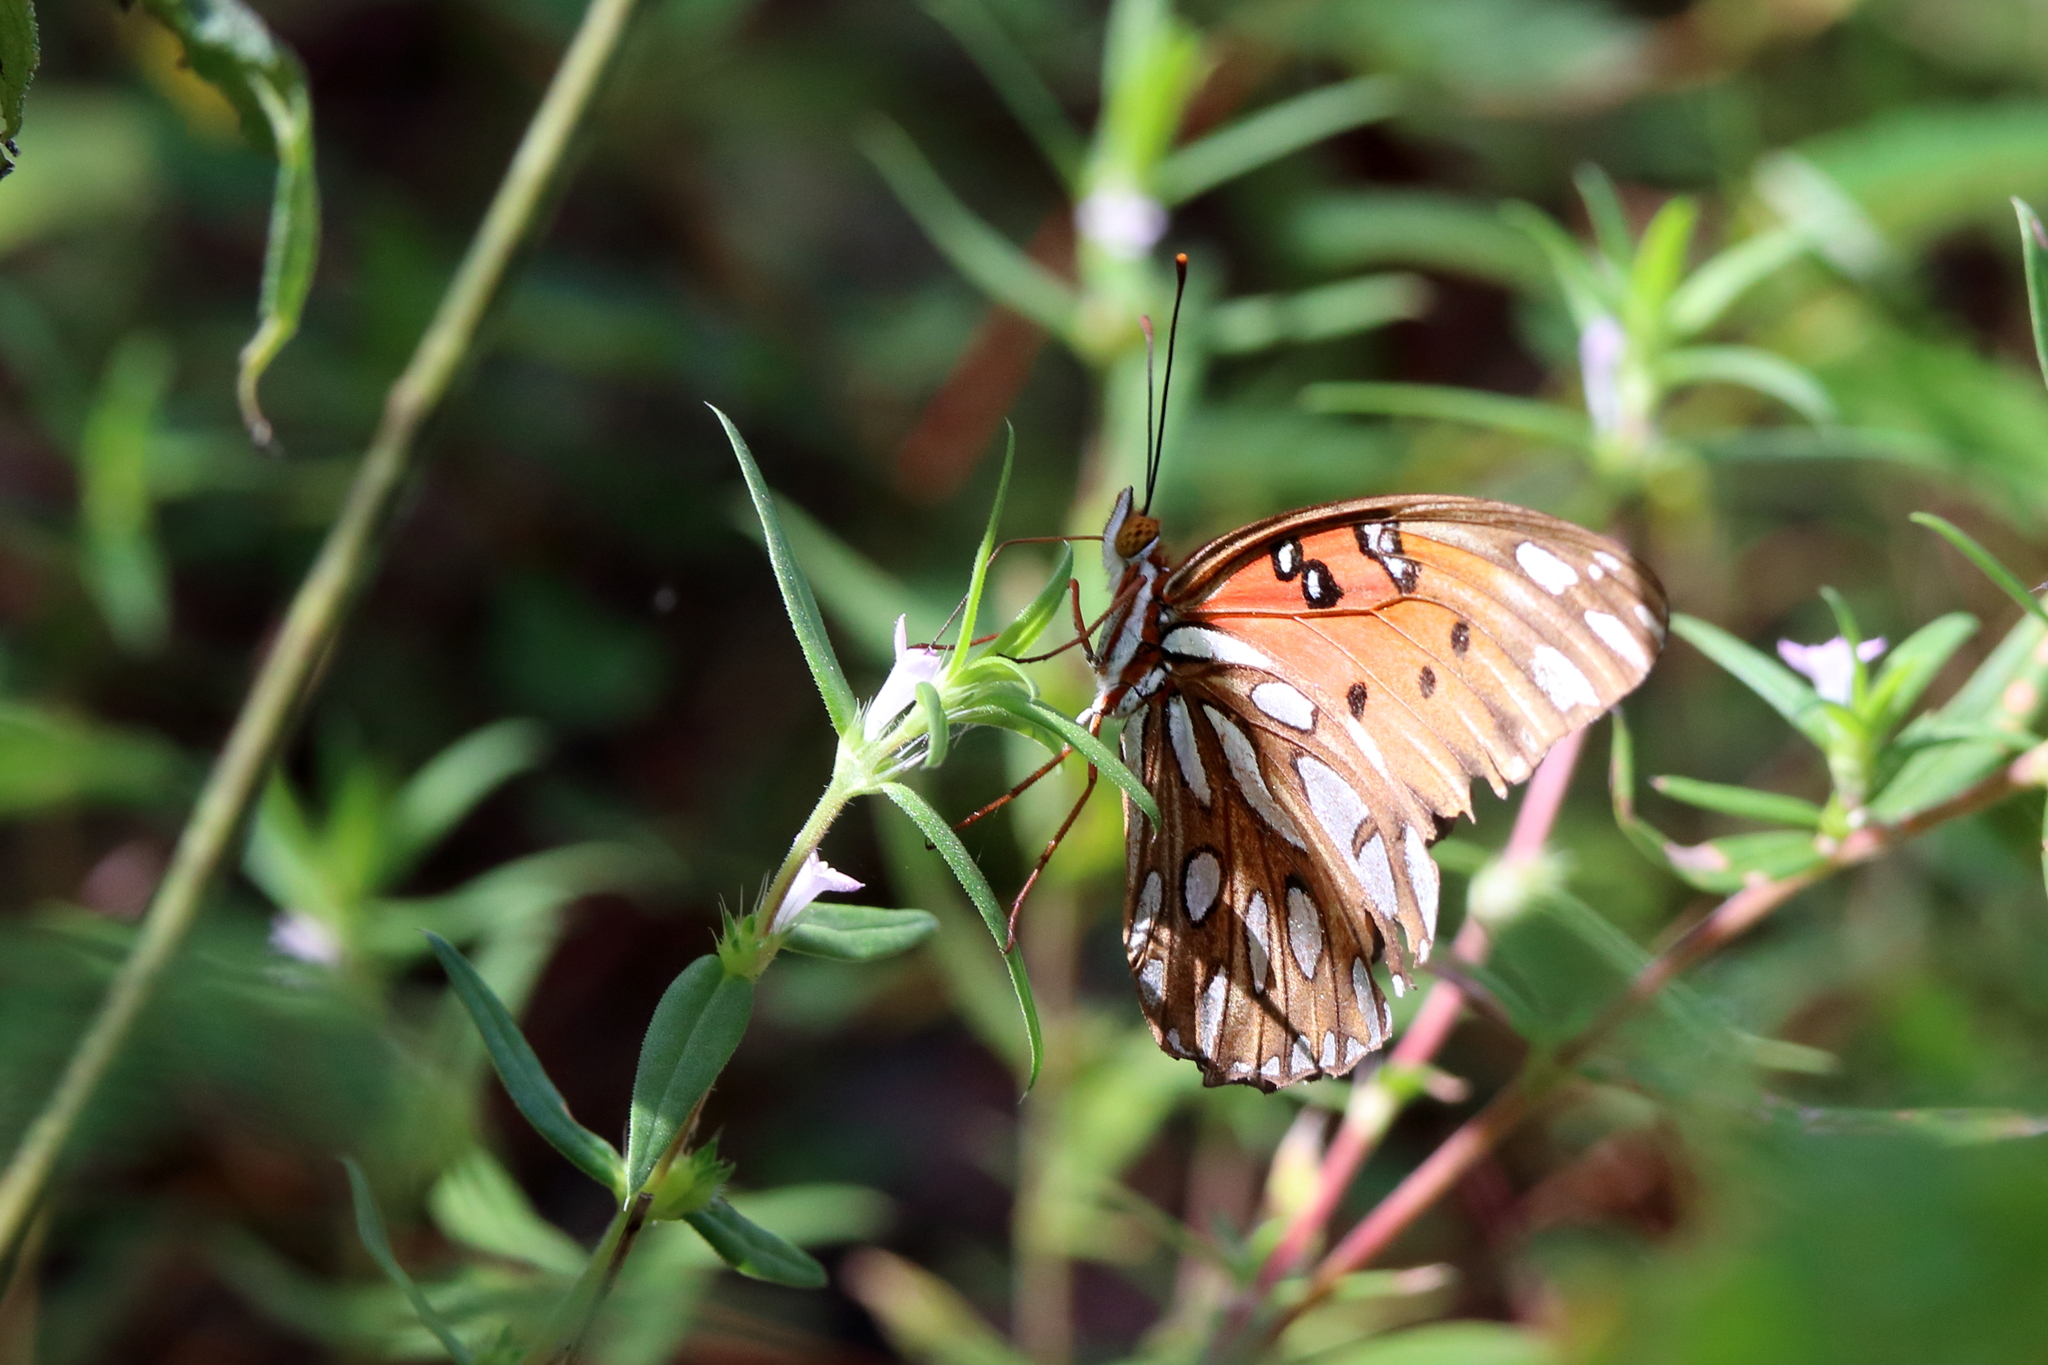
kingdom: Animalia
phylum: Arthropoda
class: Insecta
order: Lepidoptera
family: Nymphalidae
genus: Dione
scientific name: Dione vanillae
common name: Gulf fritillary
